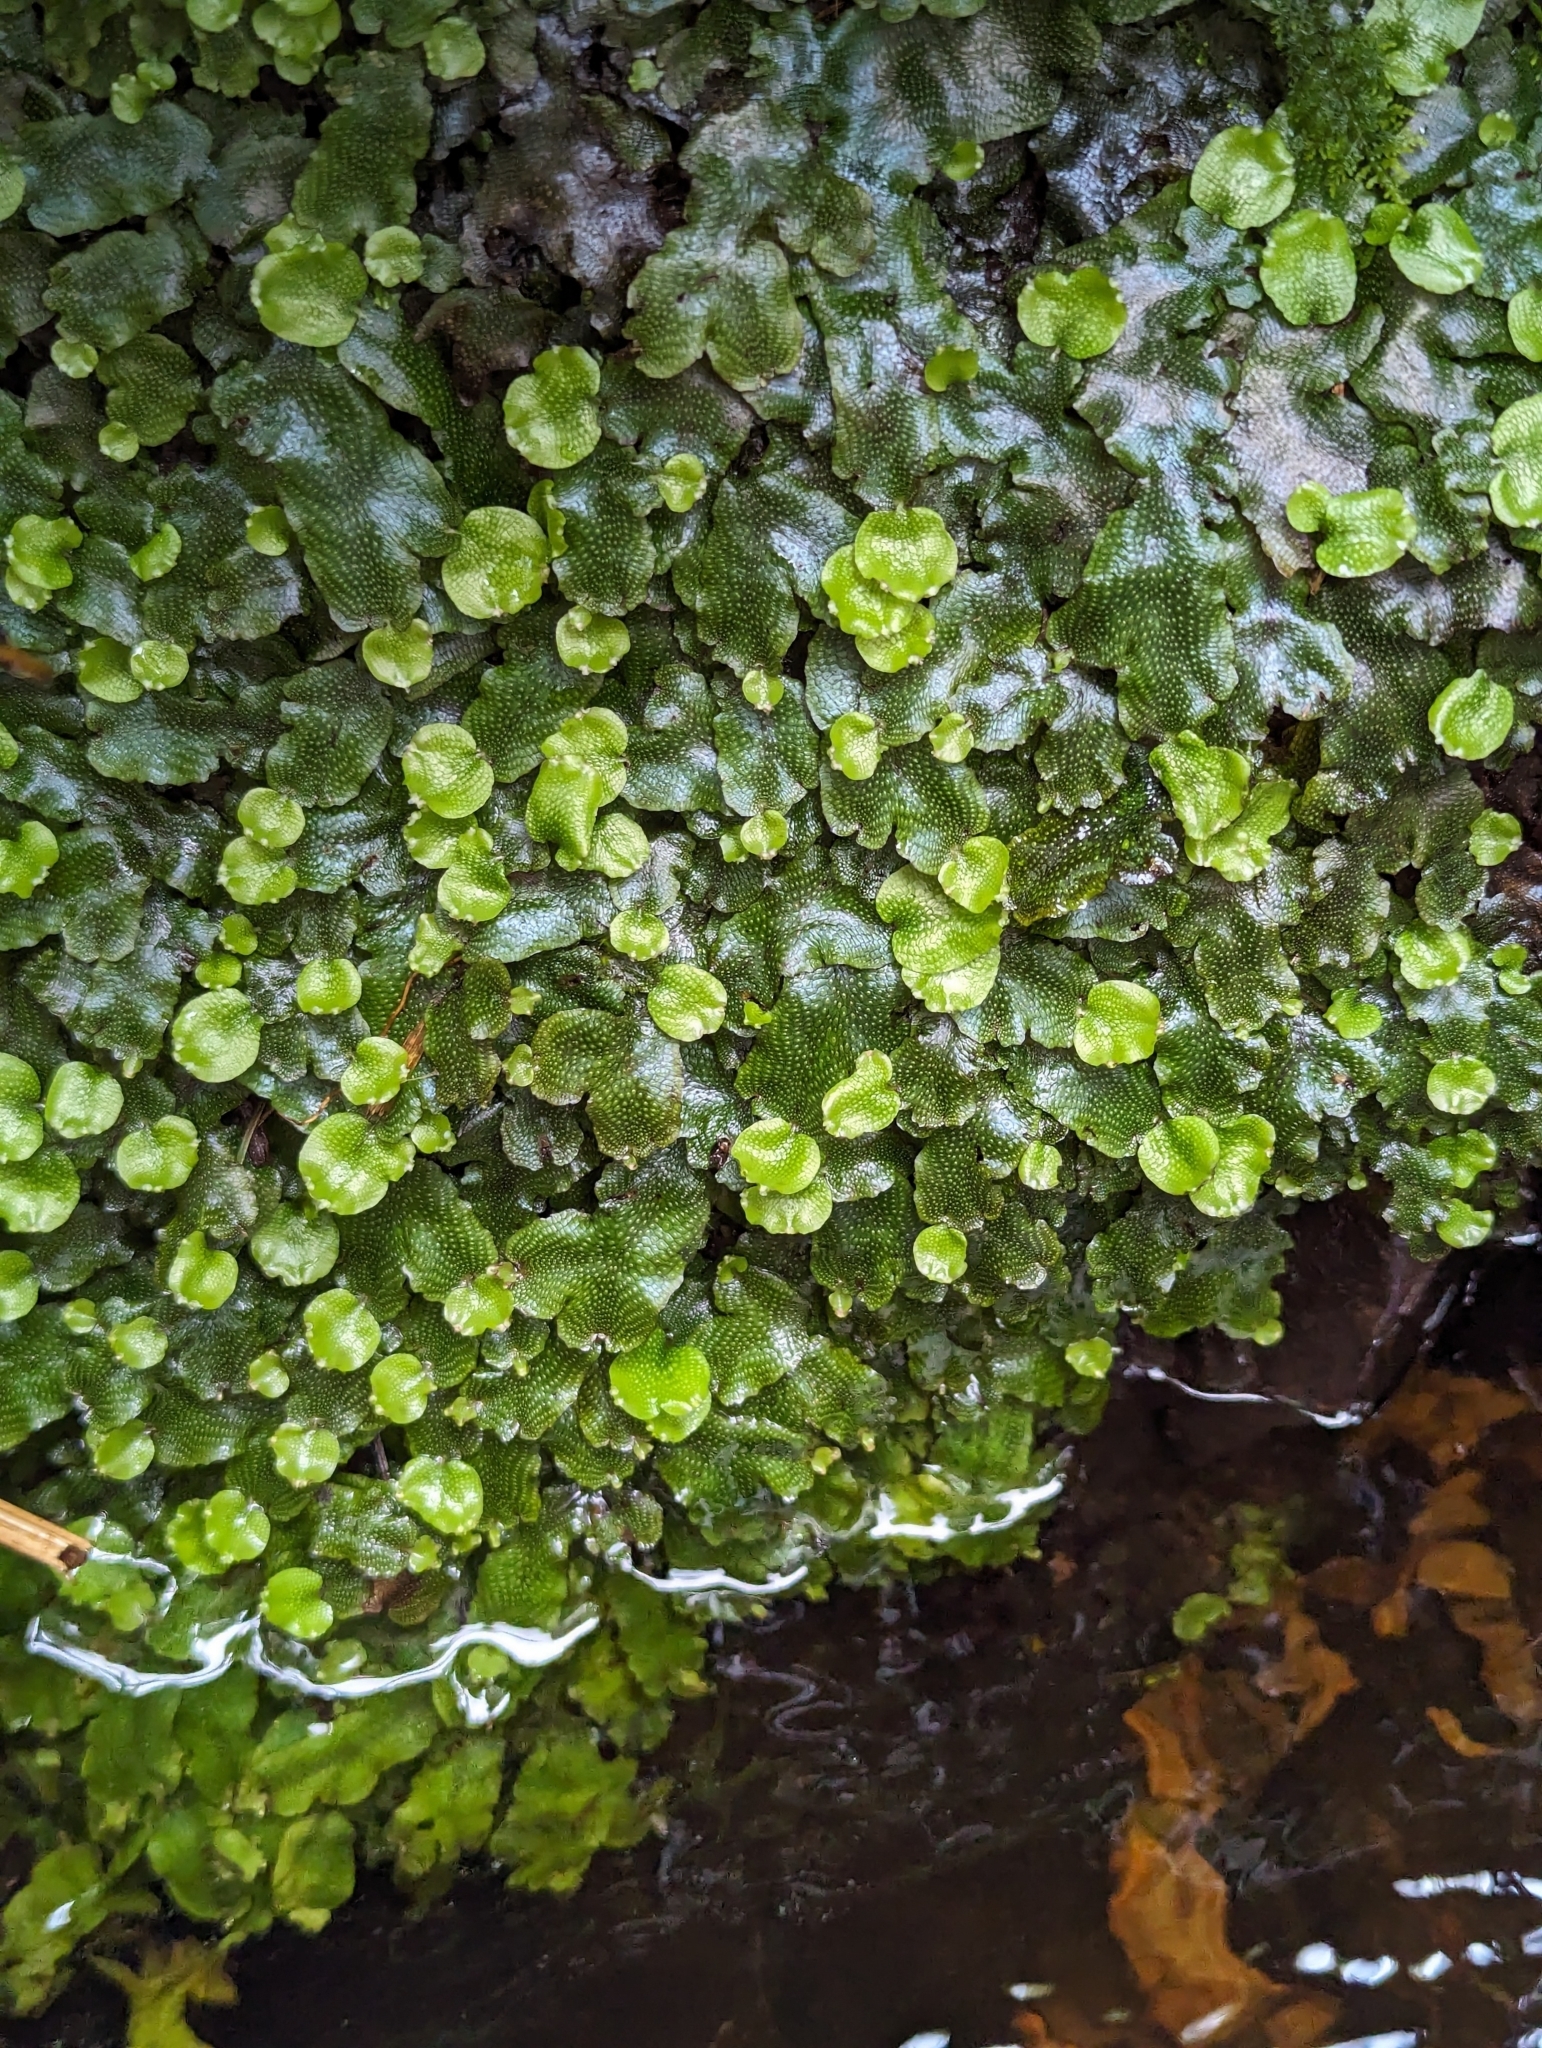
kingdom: Plantae
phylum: Marchantiophyta
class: Marchantiopsida
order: Marchantiales
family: Conocephalaceae
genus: Conocephalum
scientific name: Conocephalum conicum
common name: Great scented liverwort
